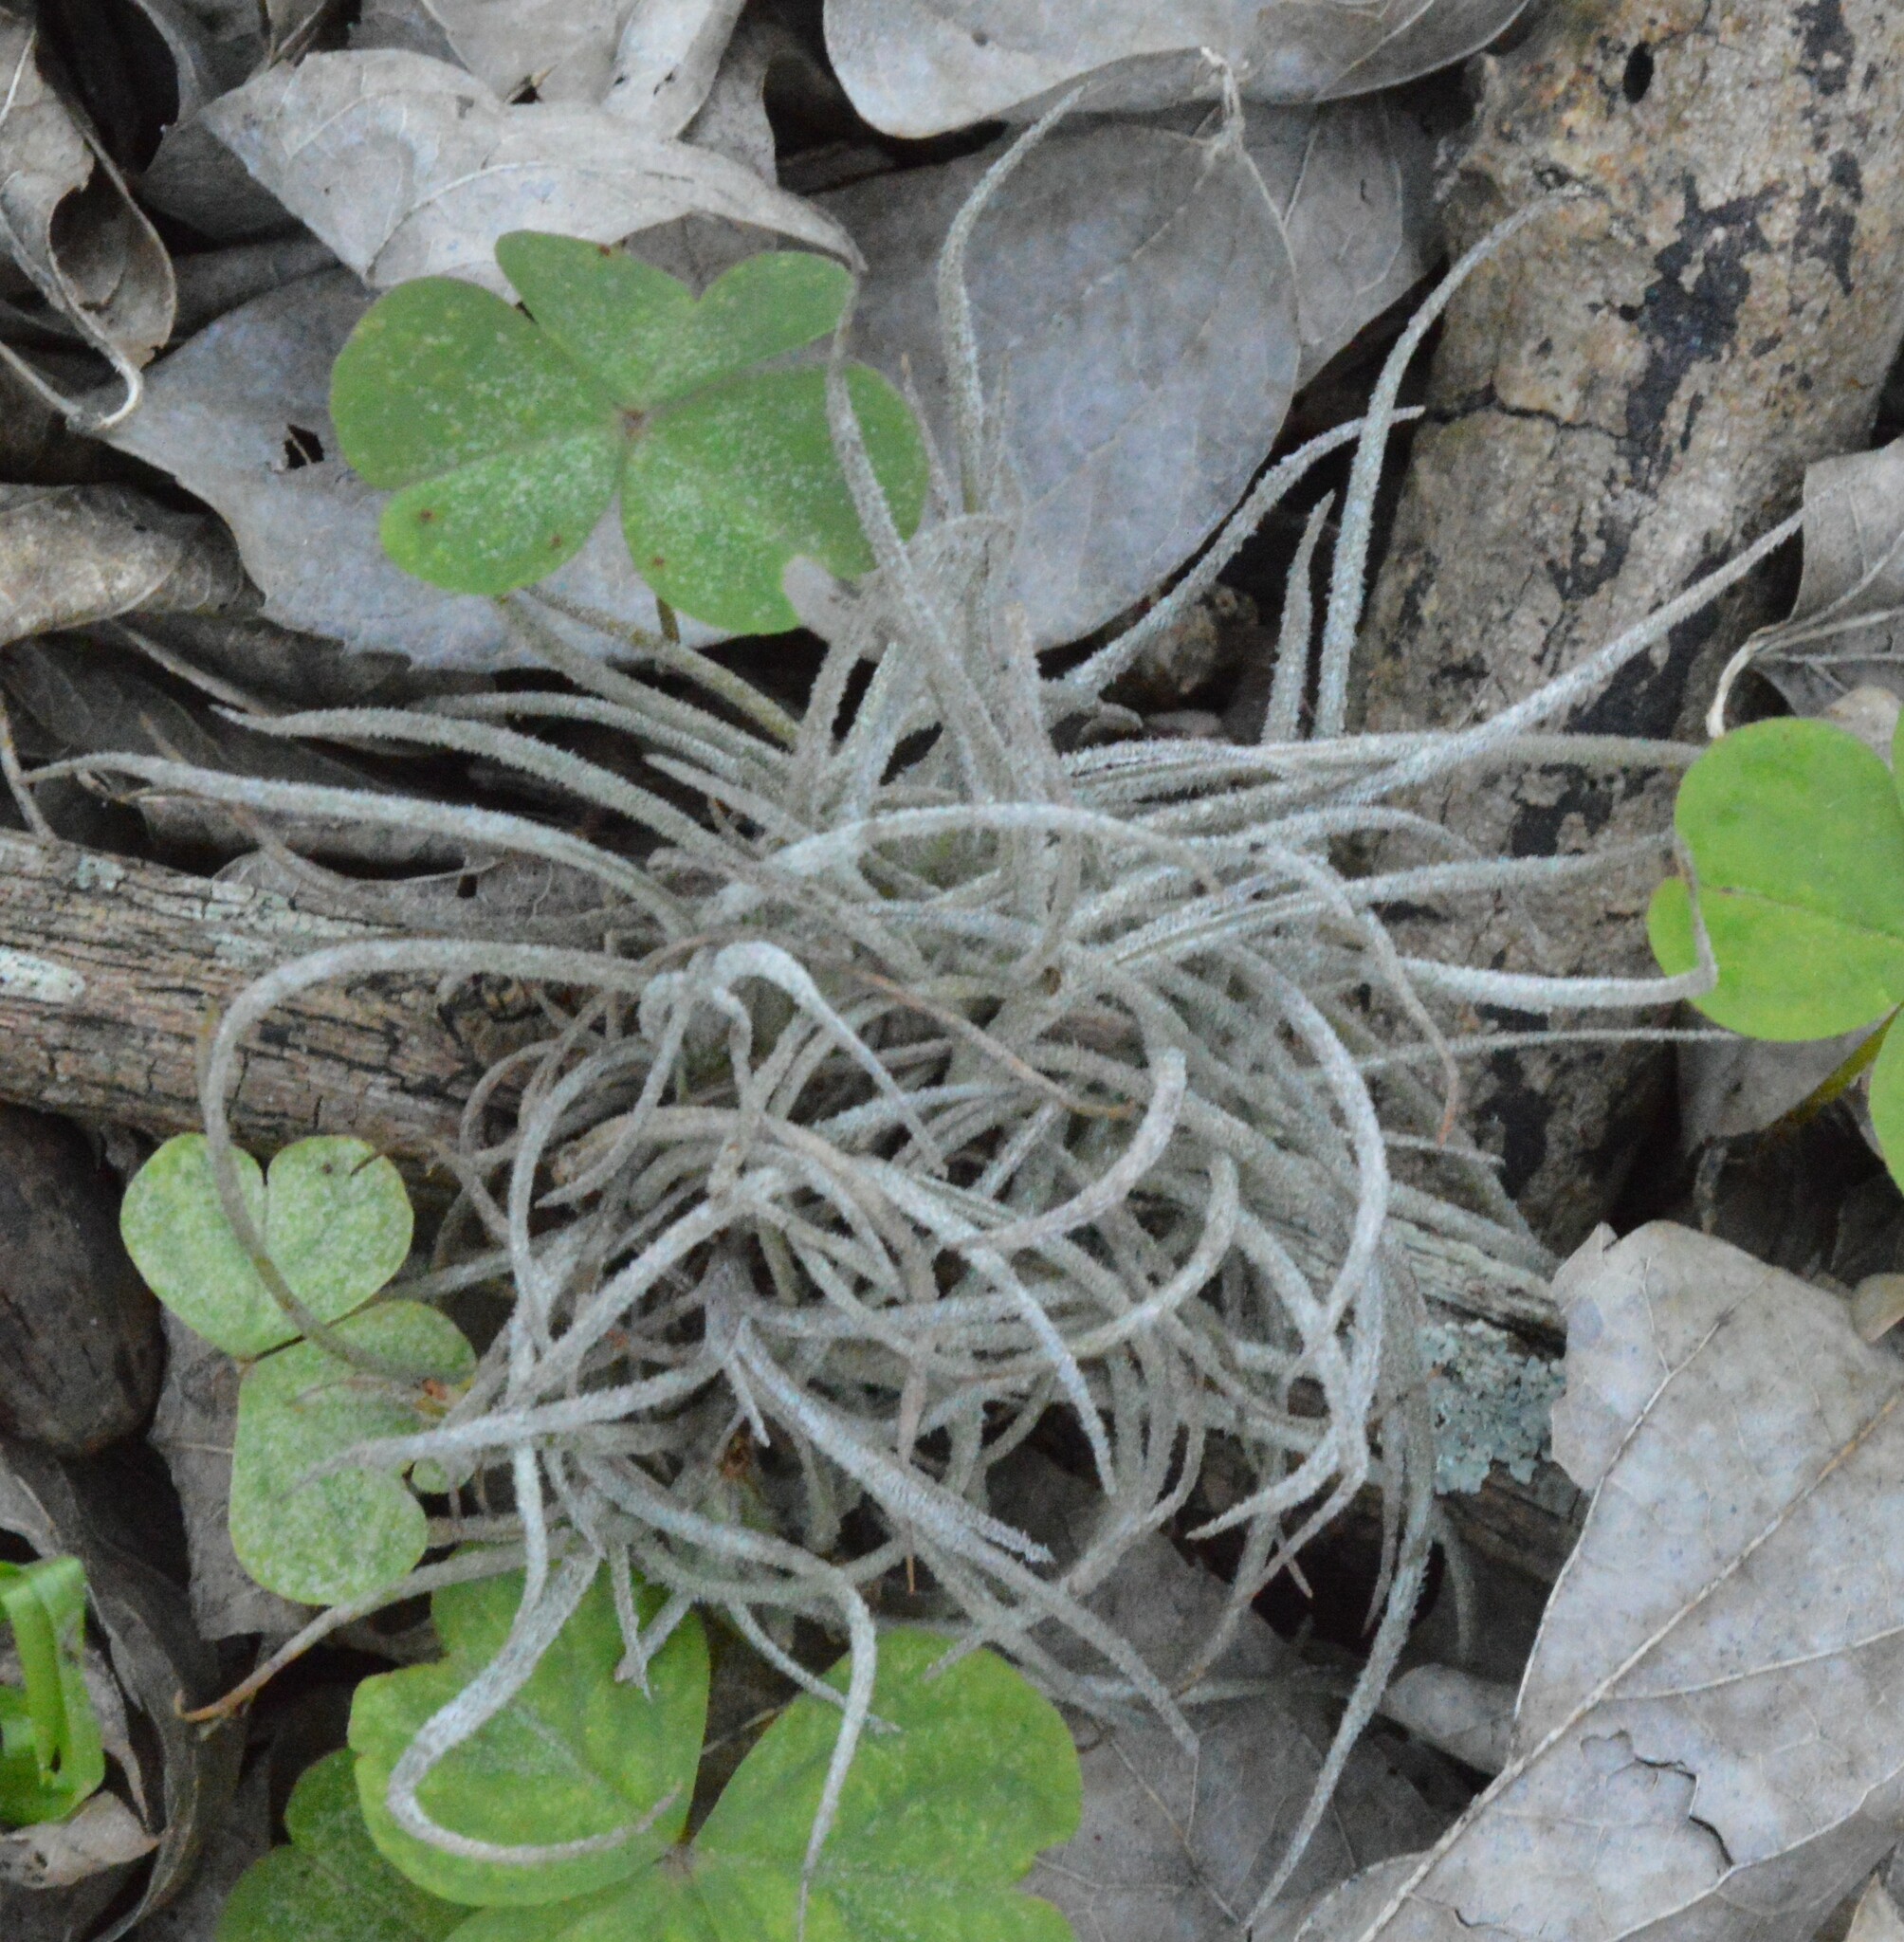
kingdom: Plantae
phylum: Tracheophyta
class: Liliopsida
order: Poales
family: Bromeliaceae
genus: Tillandsia
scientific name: Tillandsia recurvata
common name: Small ballmoss
